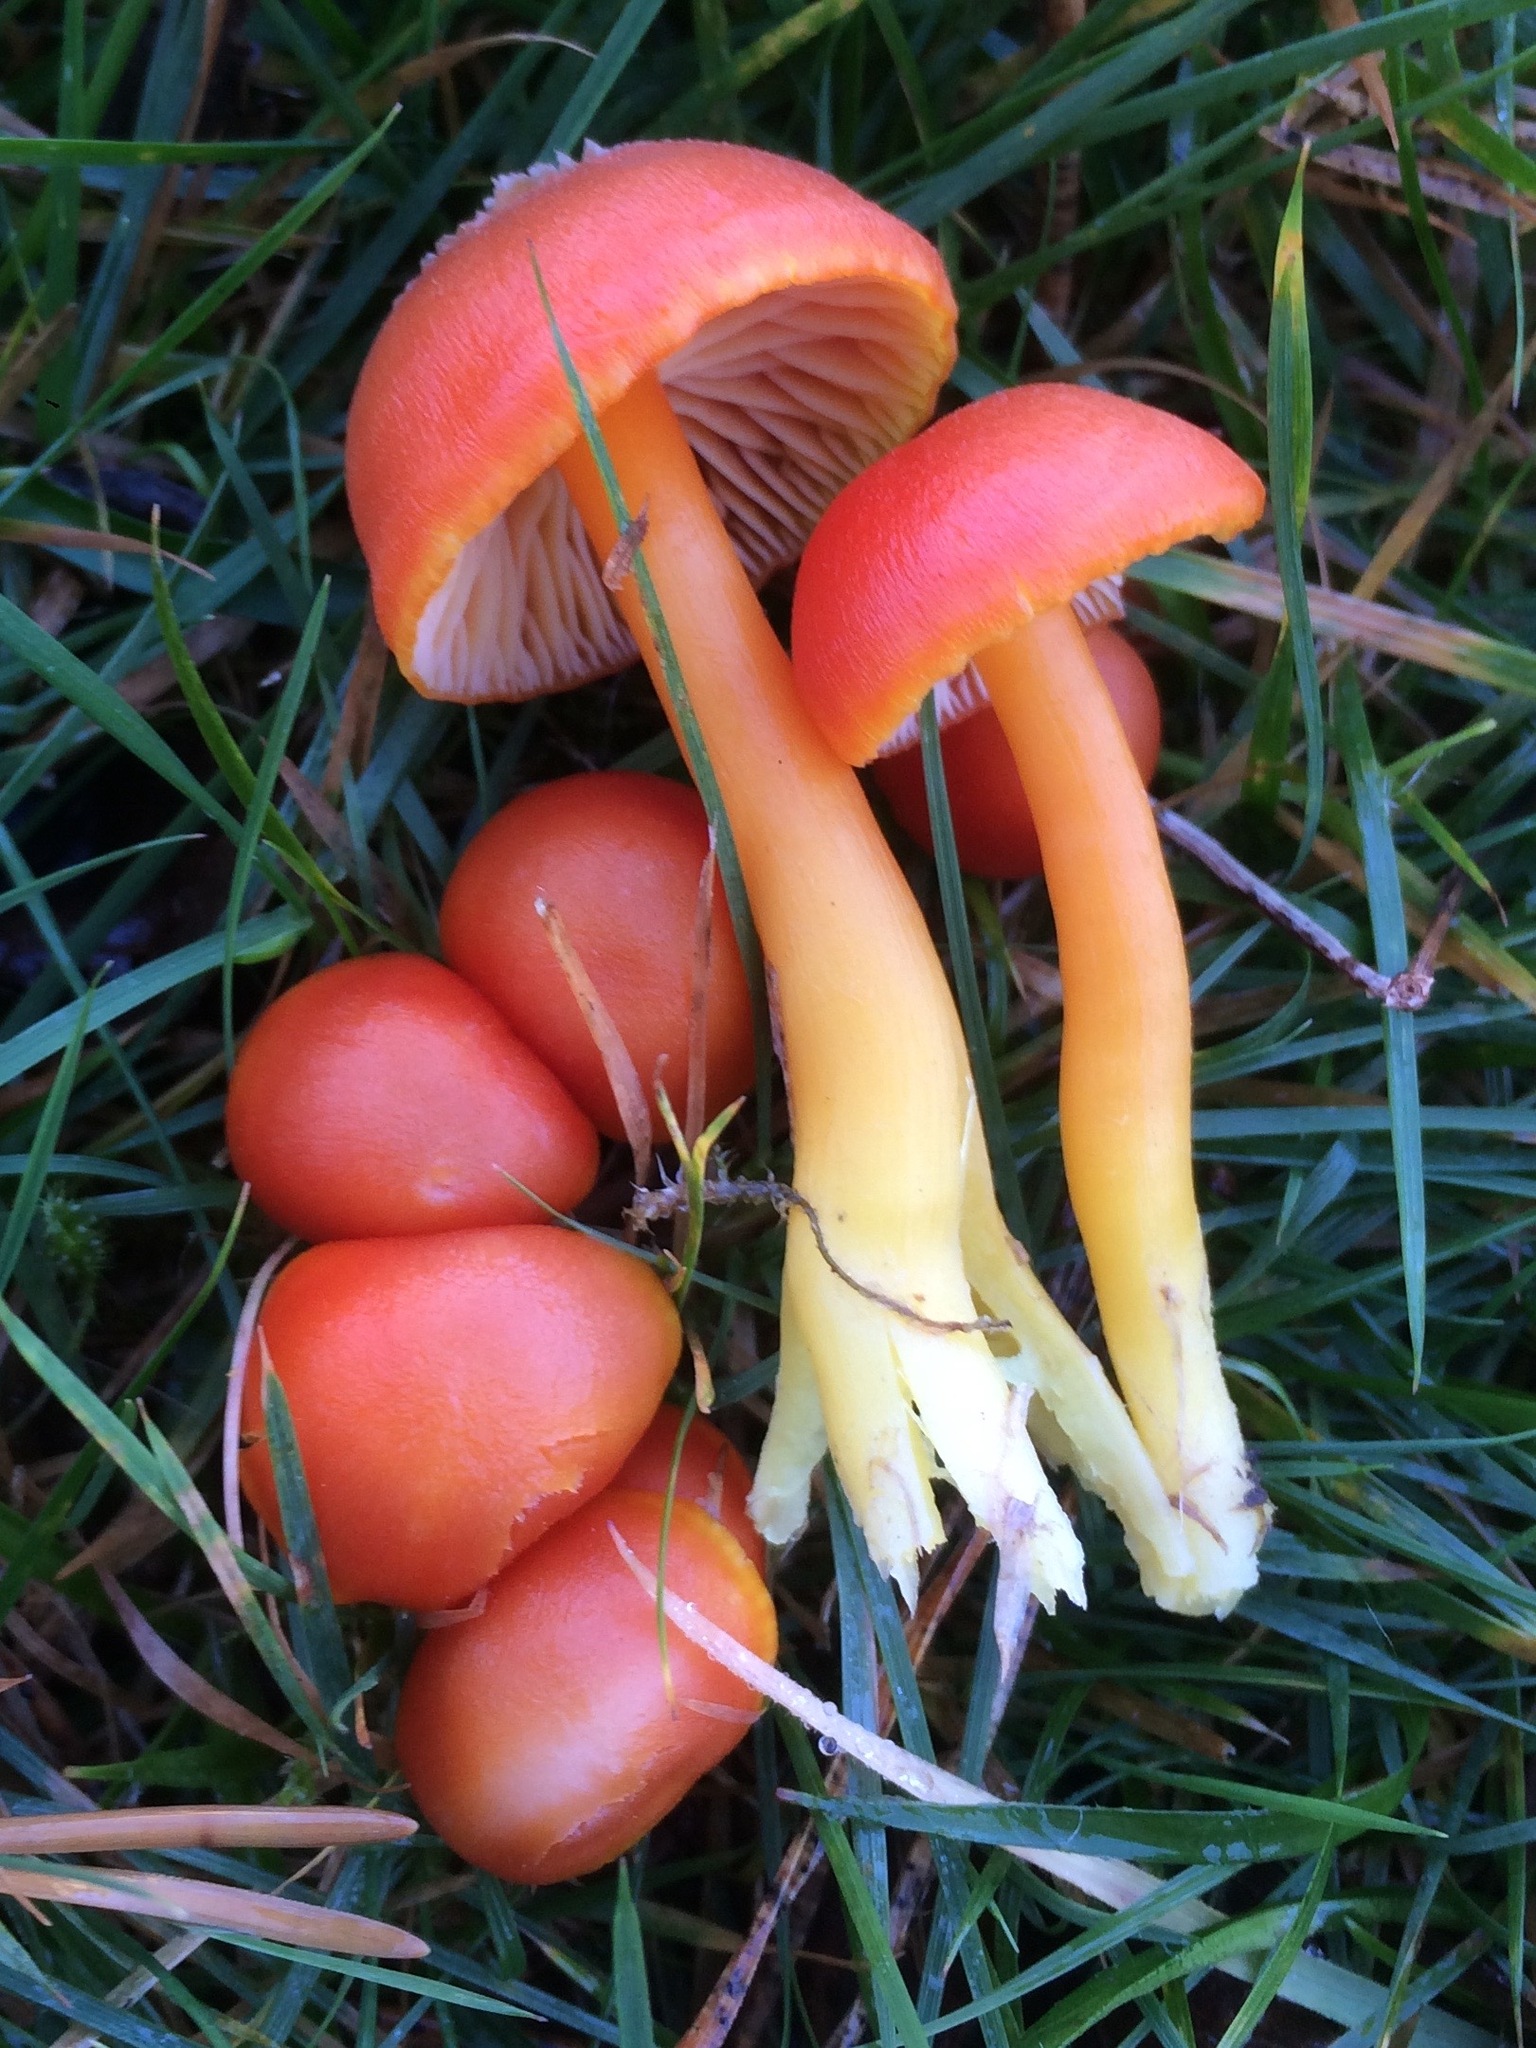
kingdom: Fungi
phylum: Basidiomycota
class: Agaricomycetes
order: Agaricales
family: Hygrophoraceae
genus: Hygrocybe
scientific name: Hygrocybe reidii
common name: Honey waxcap
